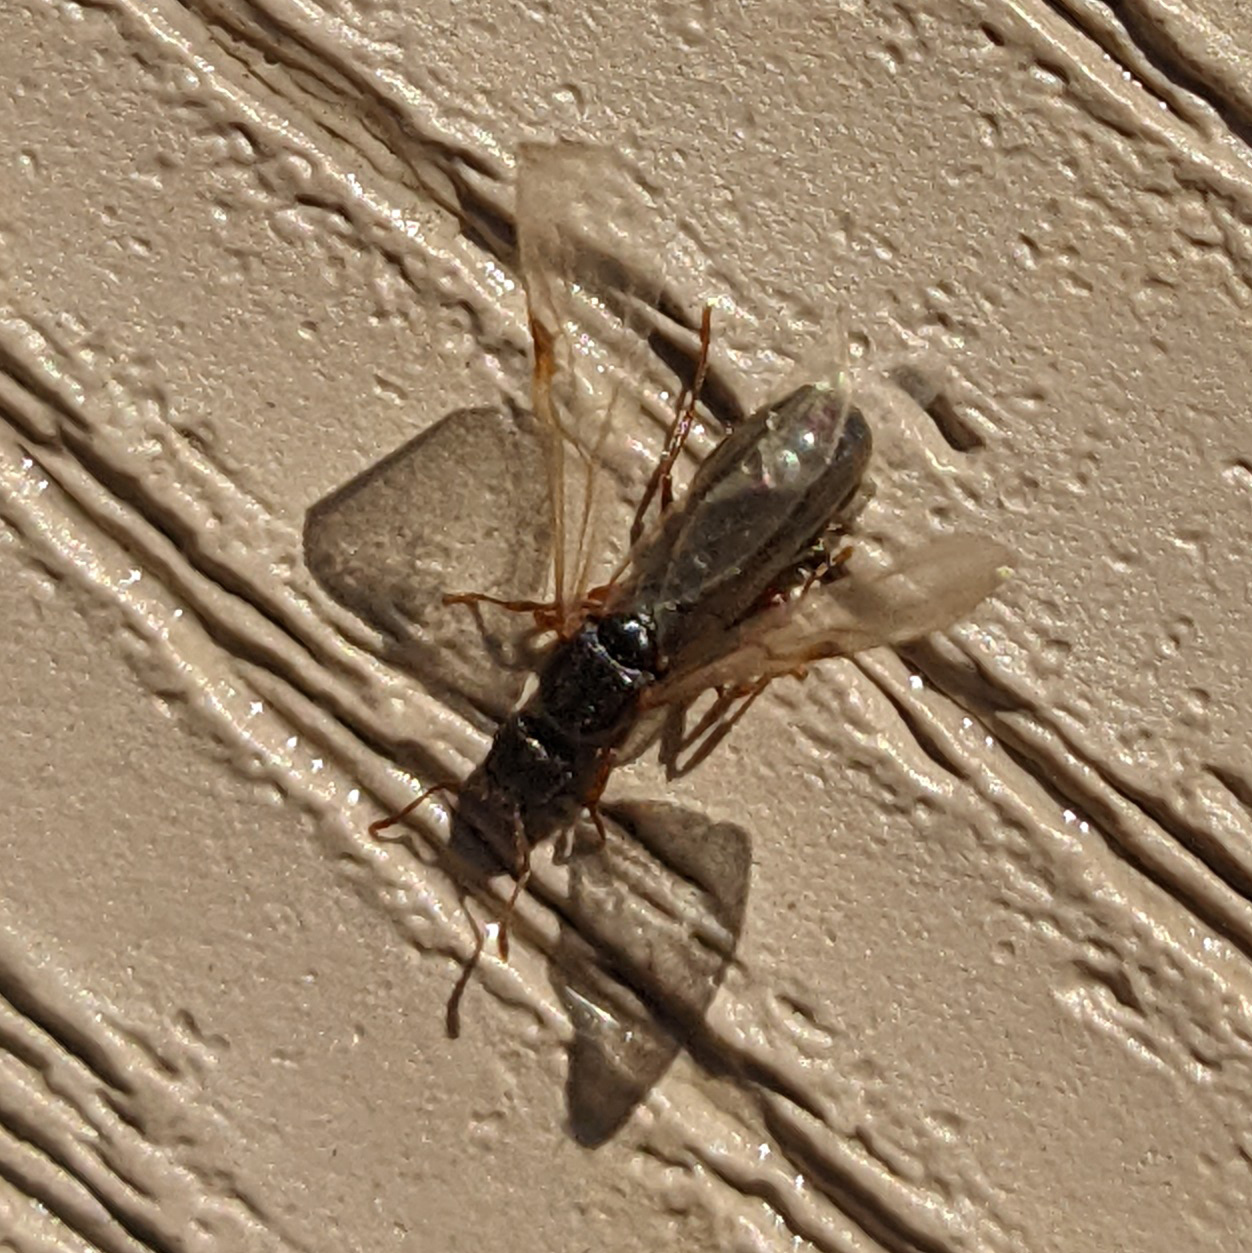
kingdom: Animalia
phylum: Arthropoda
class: Insecta
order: Hymenoptera
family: Formicidae
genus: Tetramorium
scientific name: Tetramorium immigrans
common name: Pavement ant
